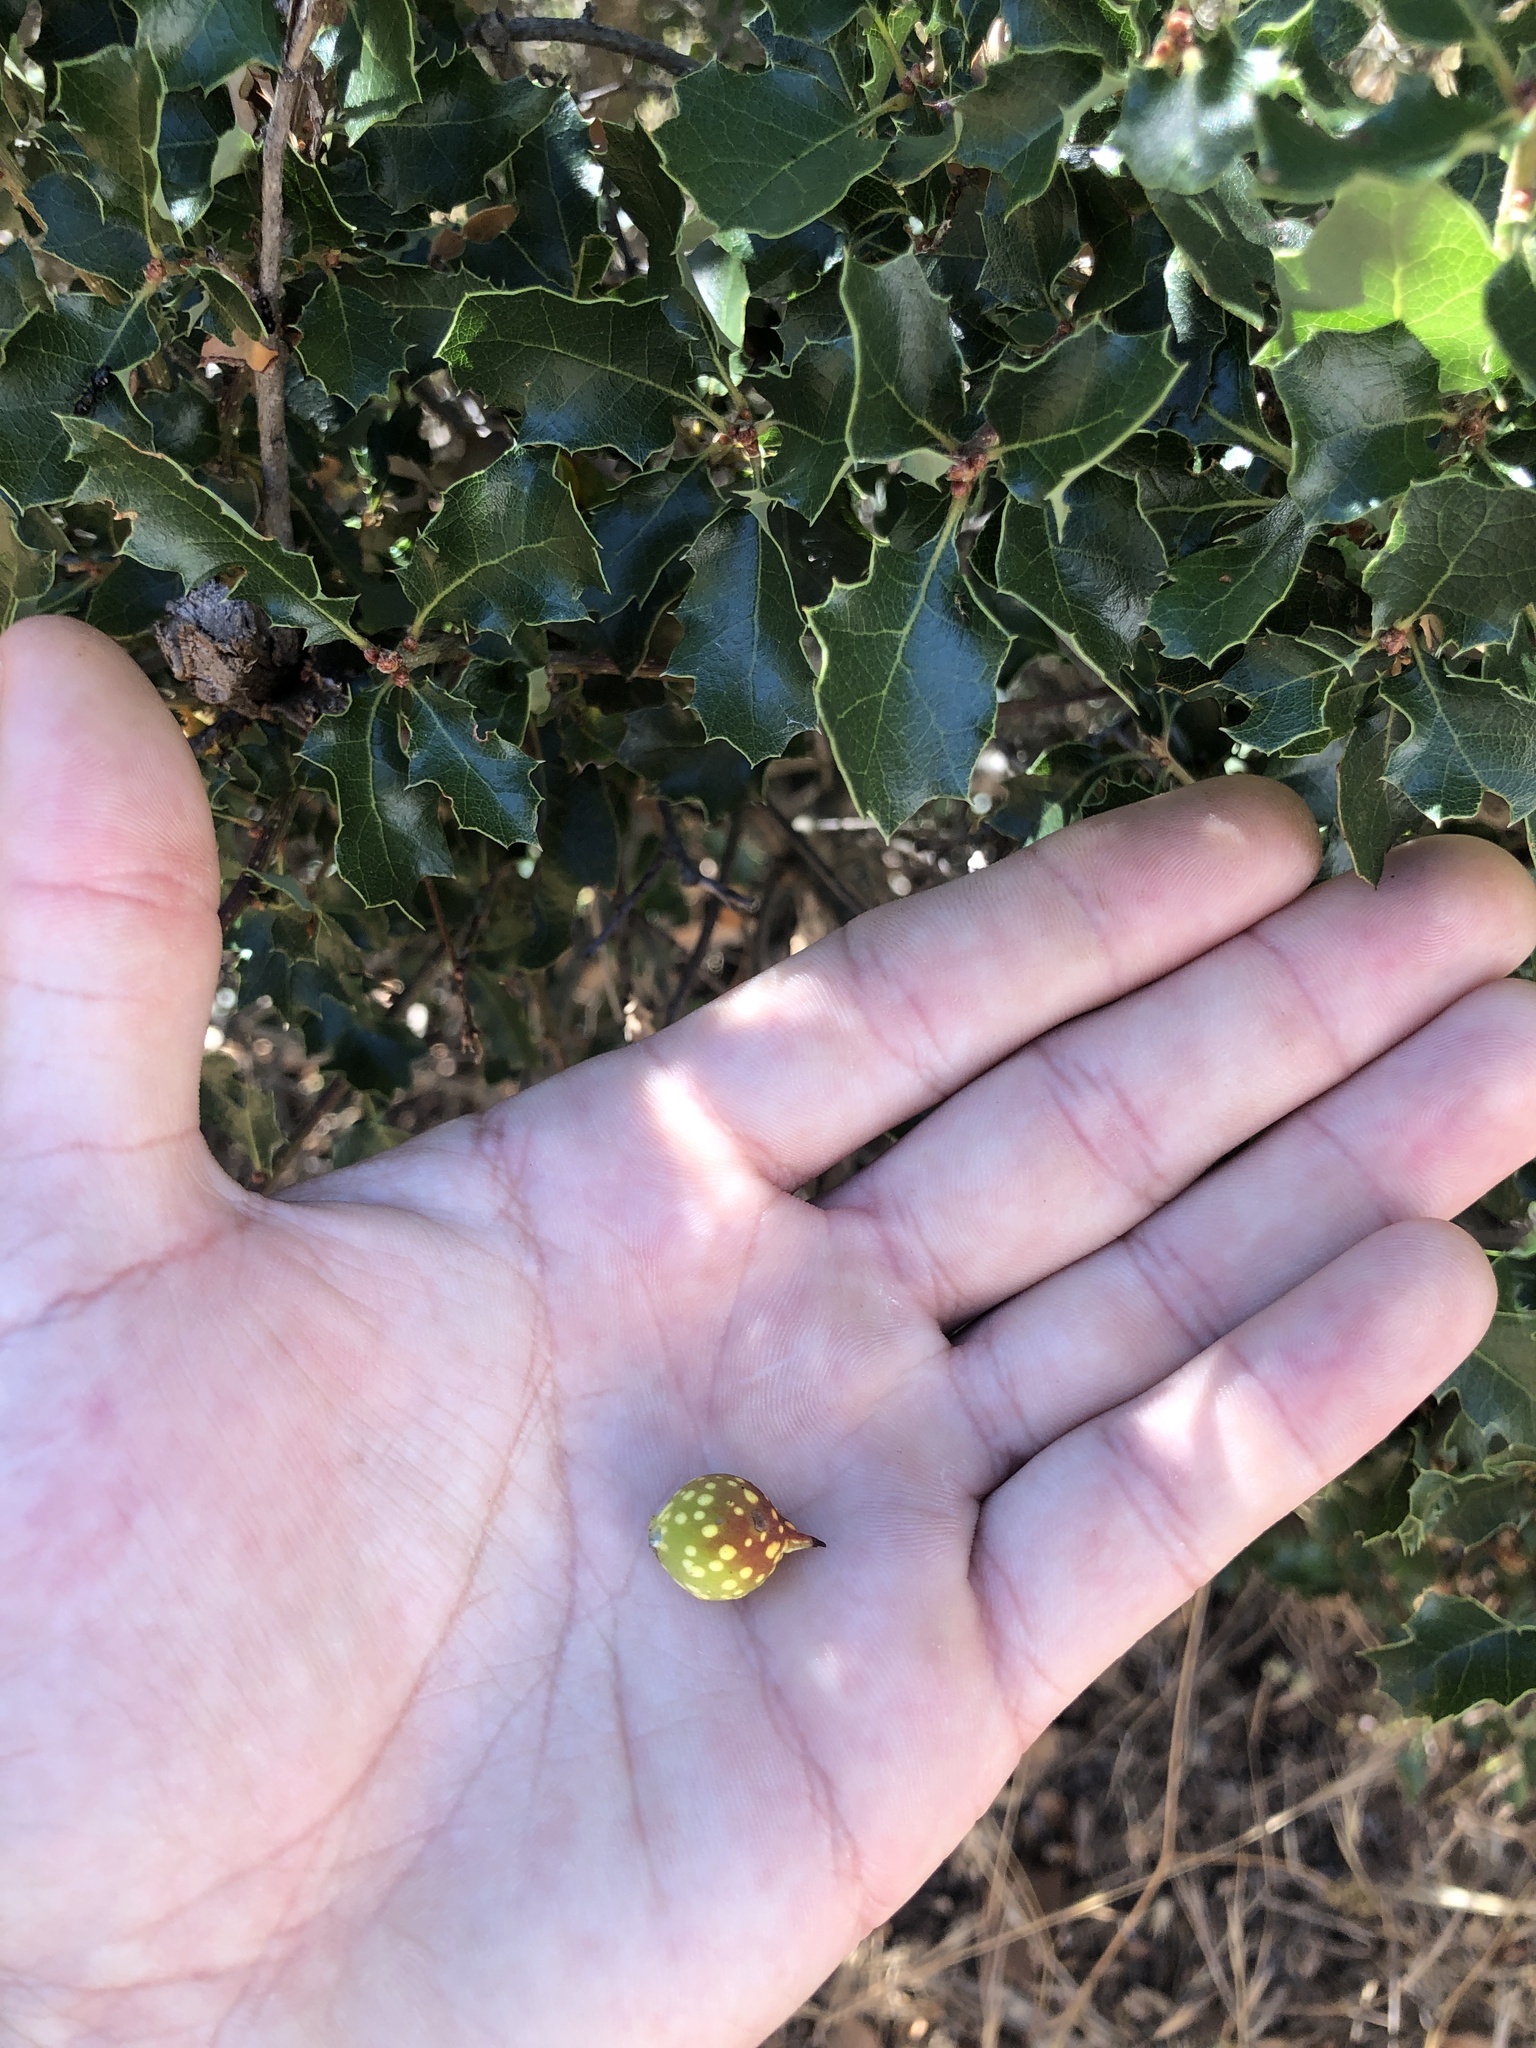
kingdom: Animalia
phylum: Arthropoda
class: Insecta
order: Hymenoptera
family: Cynipidae
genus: Burnettweldia
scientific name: Burnettweldia
